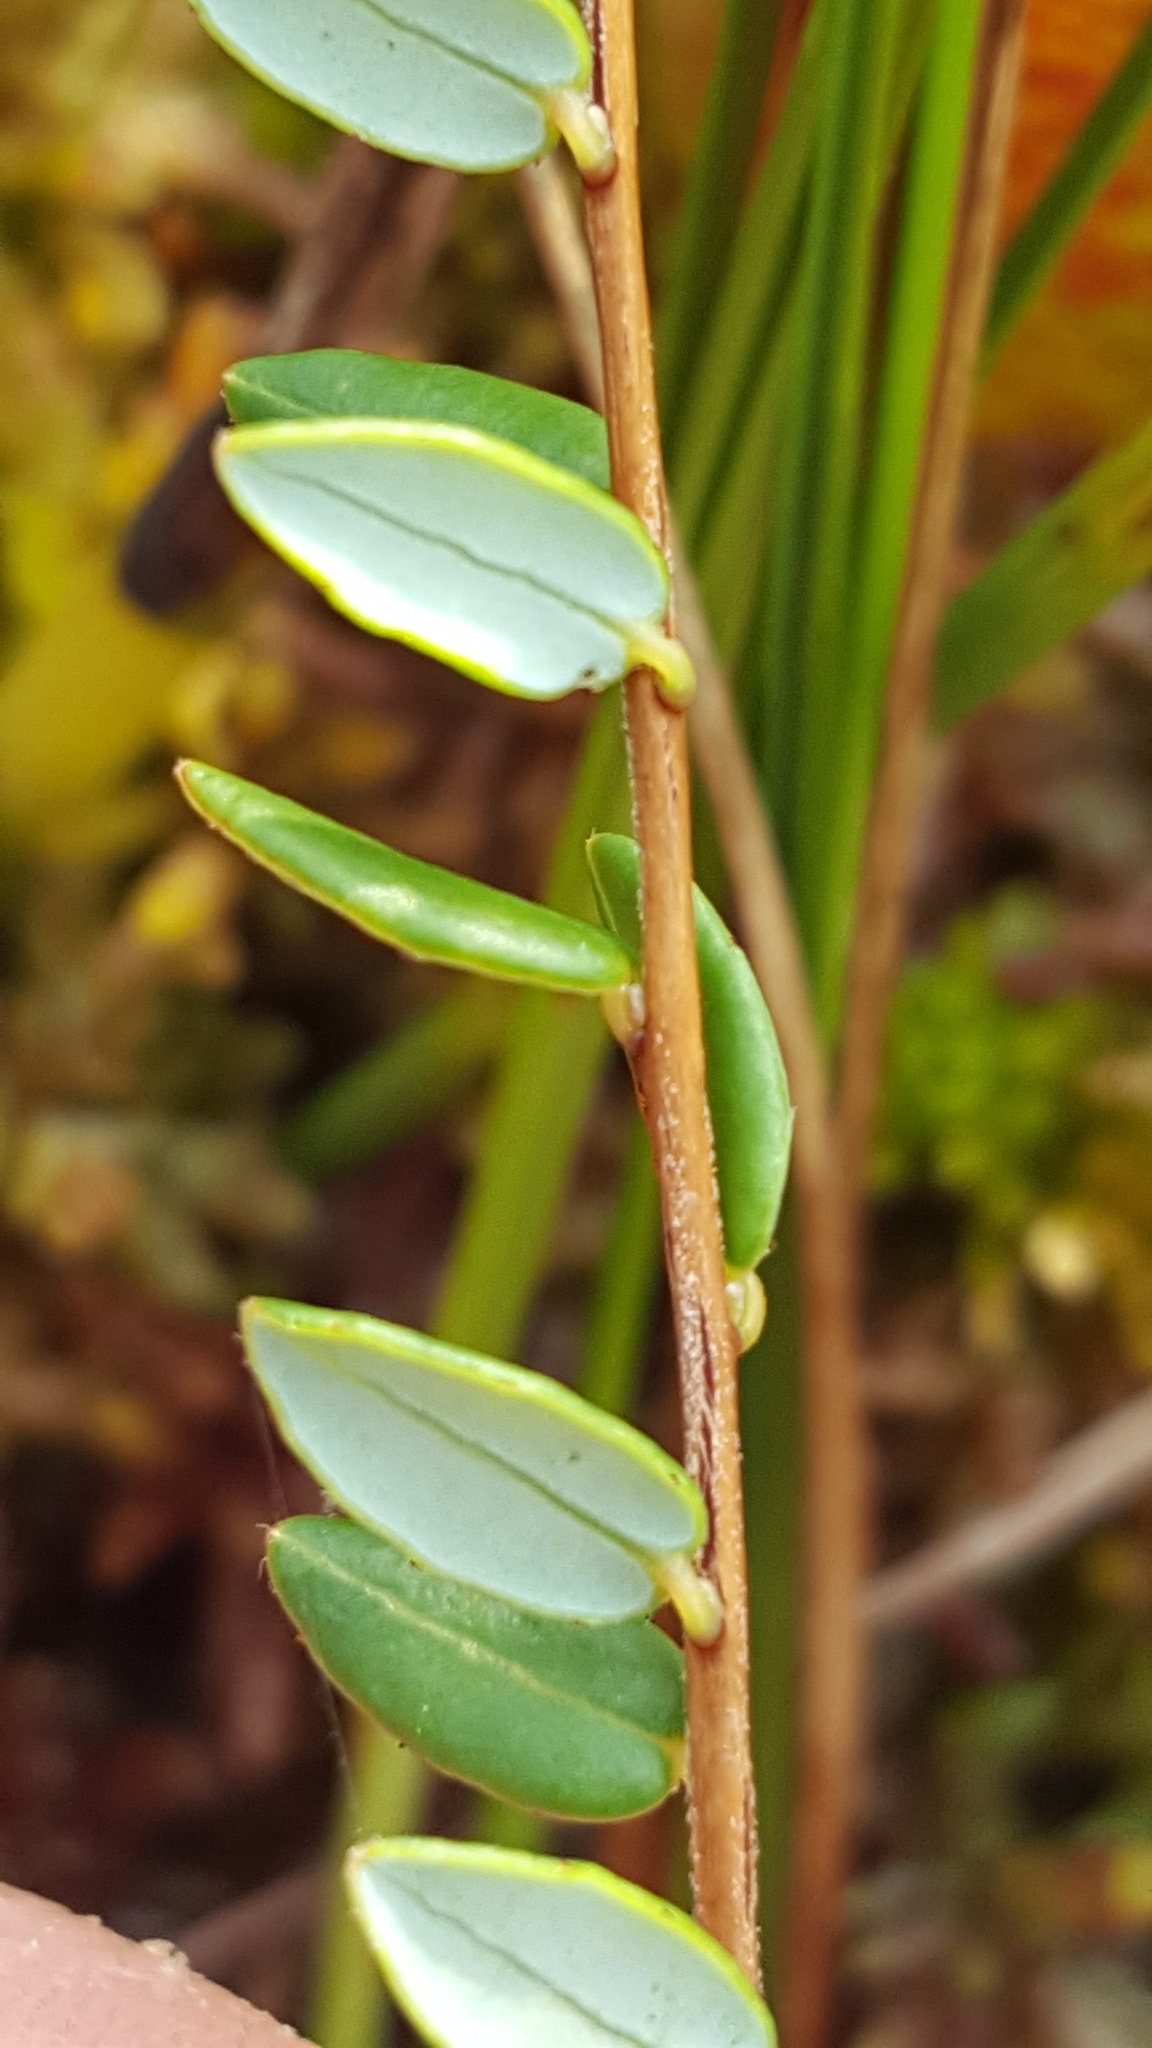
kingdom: Plantae
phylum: Tracheophyta
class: Magnoliopsida
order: Ericales
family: Ericaceae
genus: Vaccinium
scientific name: Vaccinium oxycoccos
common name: Cranberry
